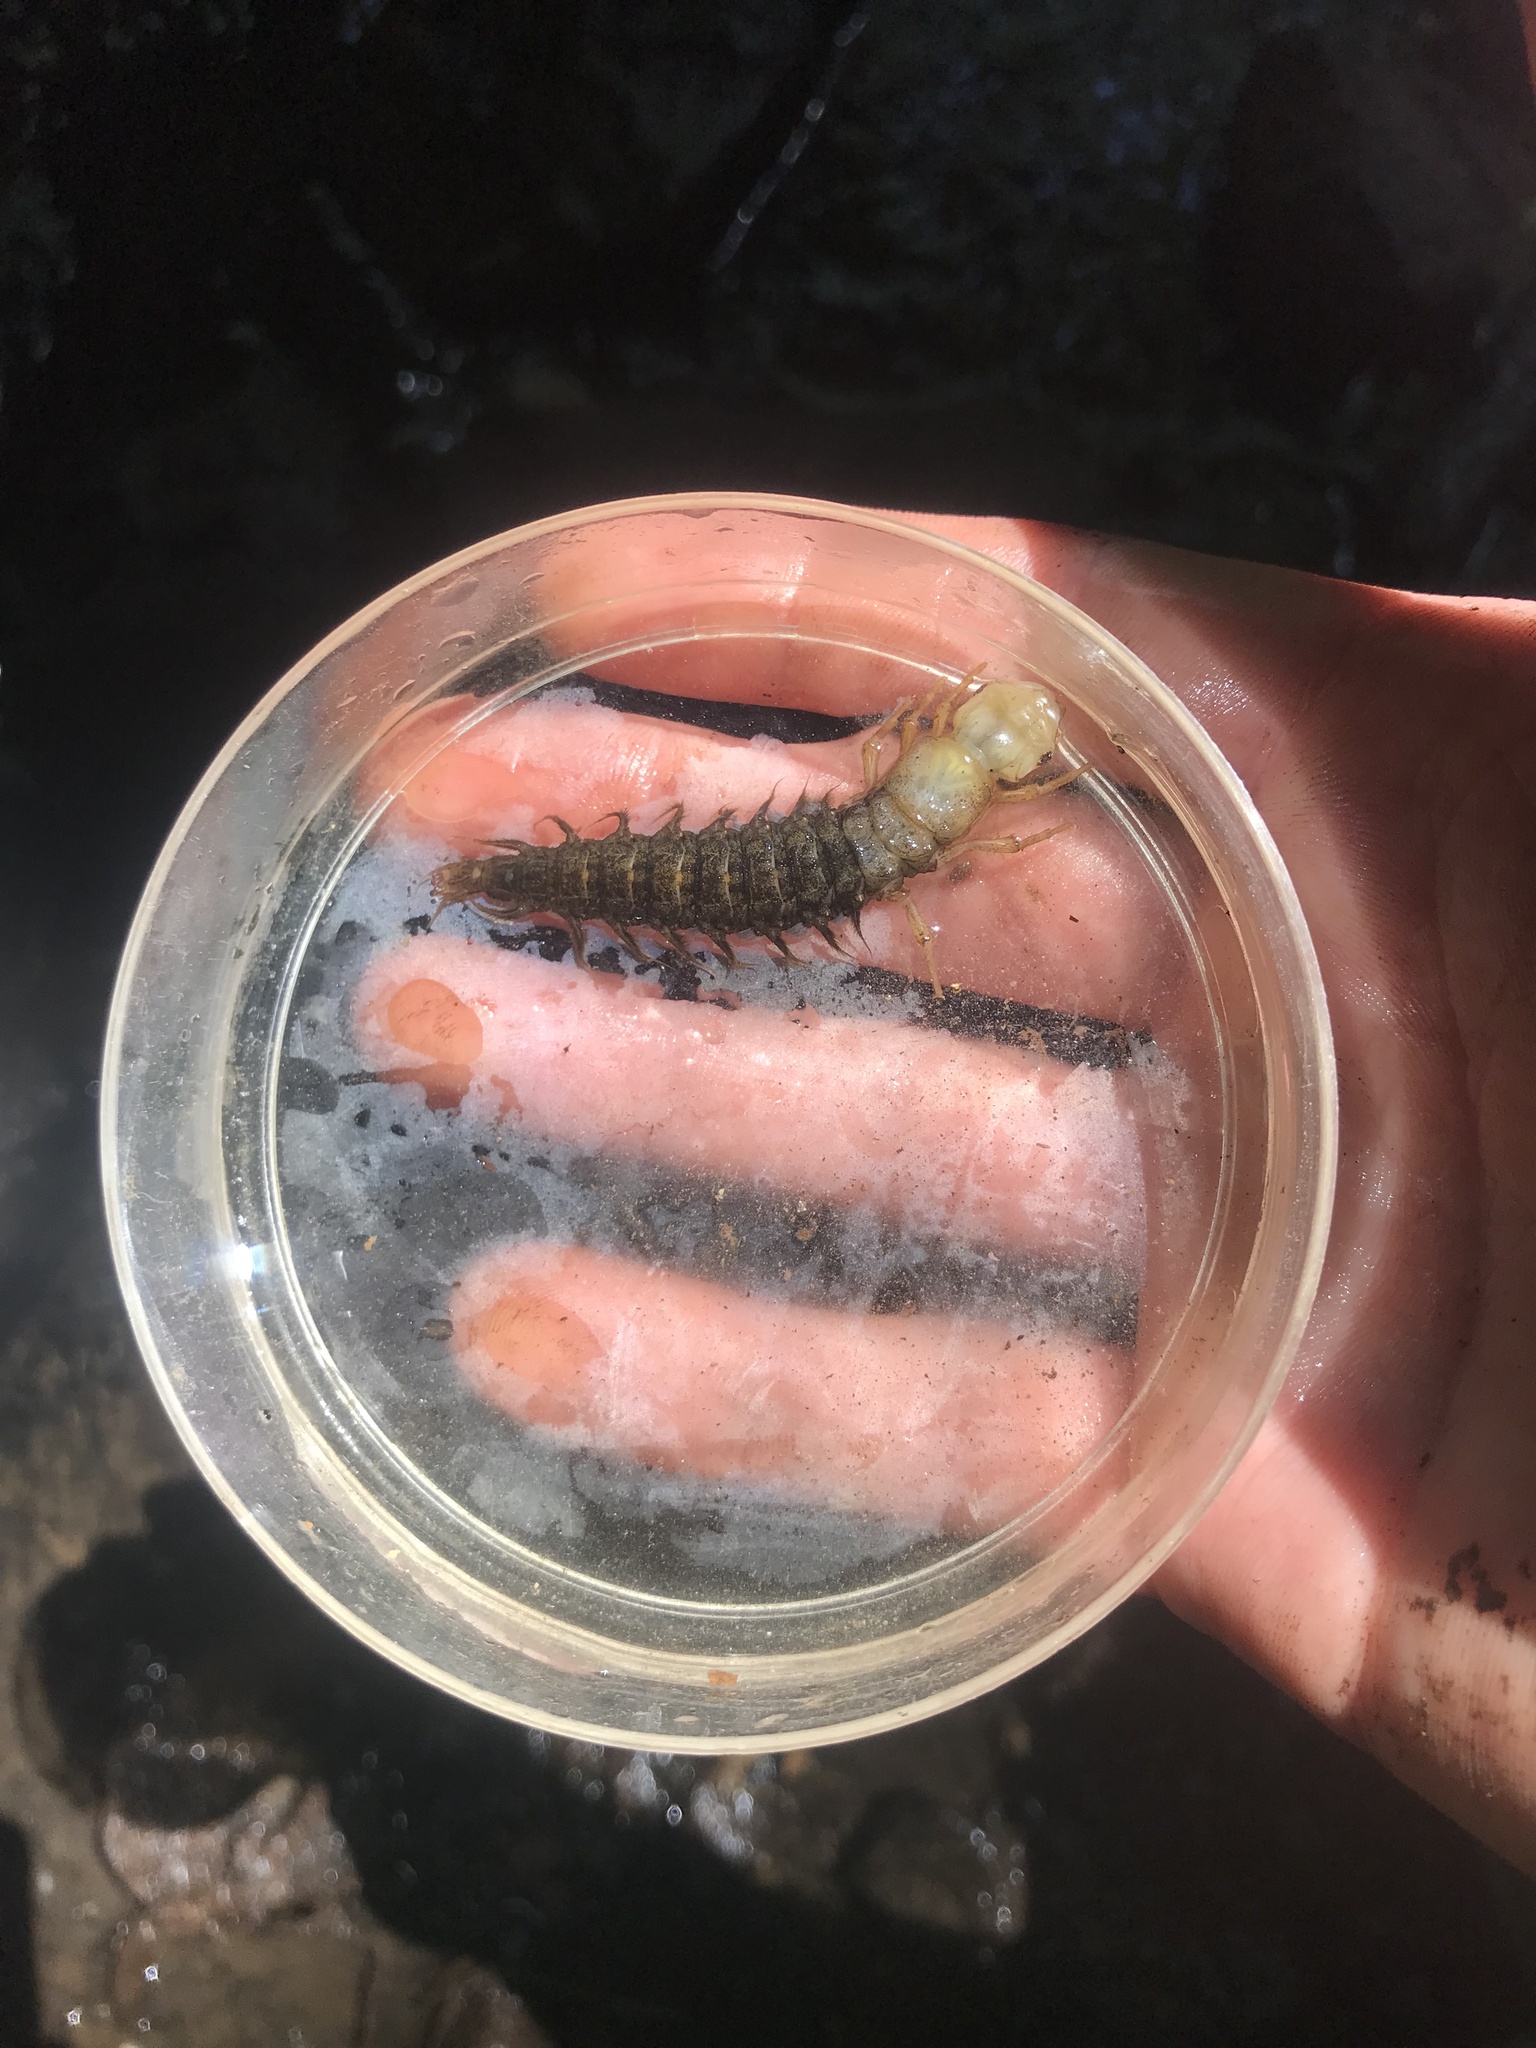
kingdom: Animalia
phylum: Arthropoda
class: Insecta
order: Megaloptera
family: Corydalidae
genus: Corydalus
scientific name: Corydalus cornutus
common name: Dobsonfly
